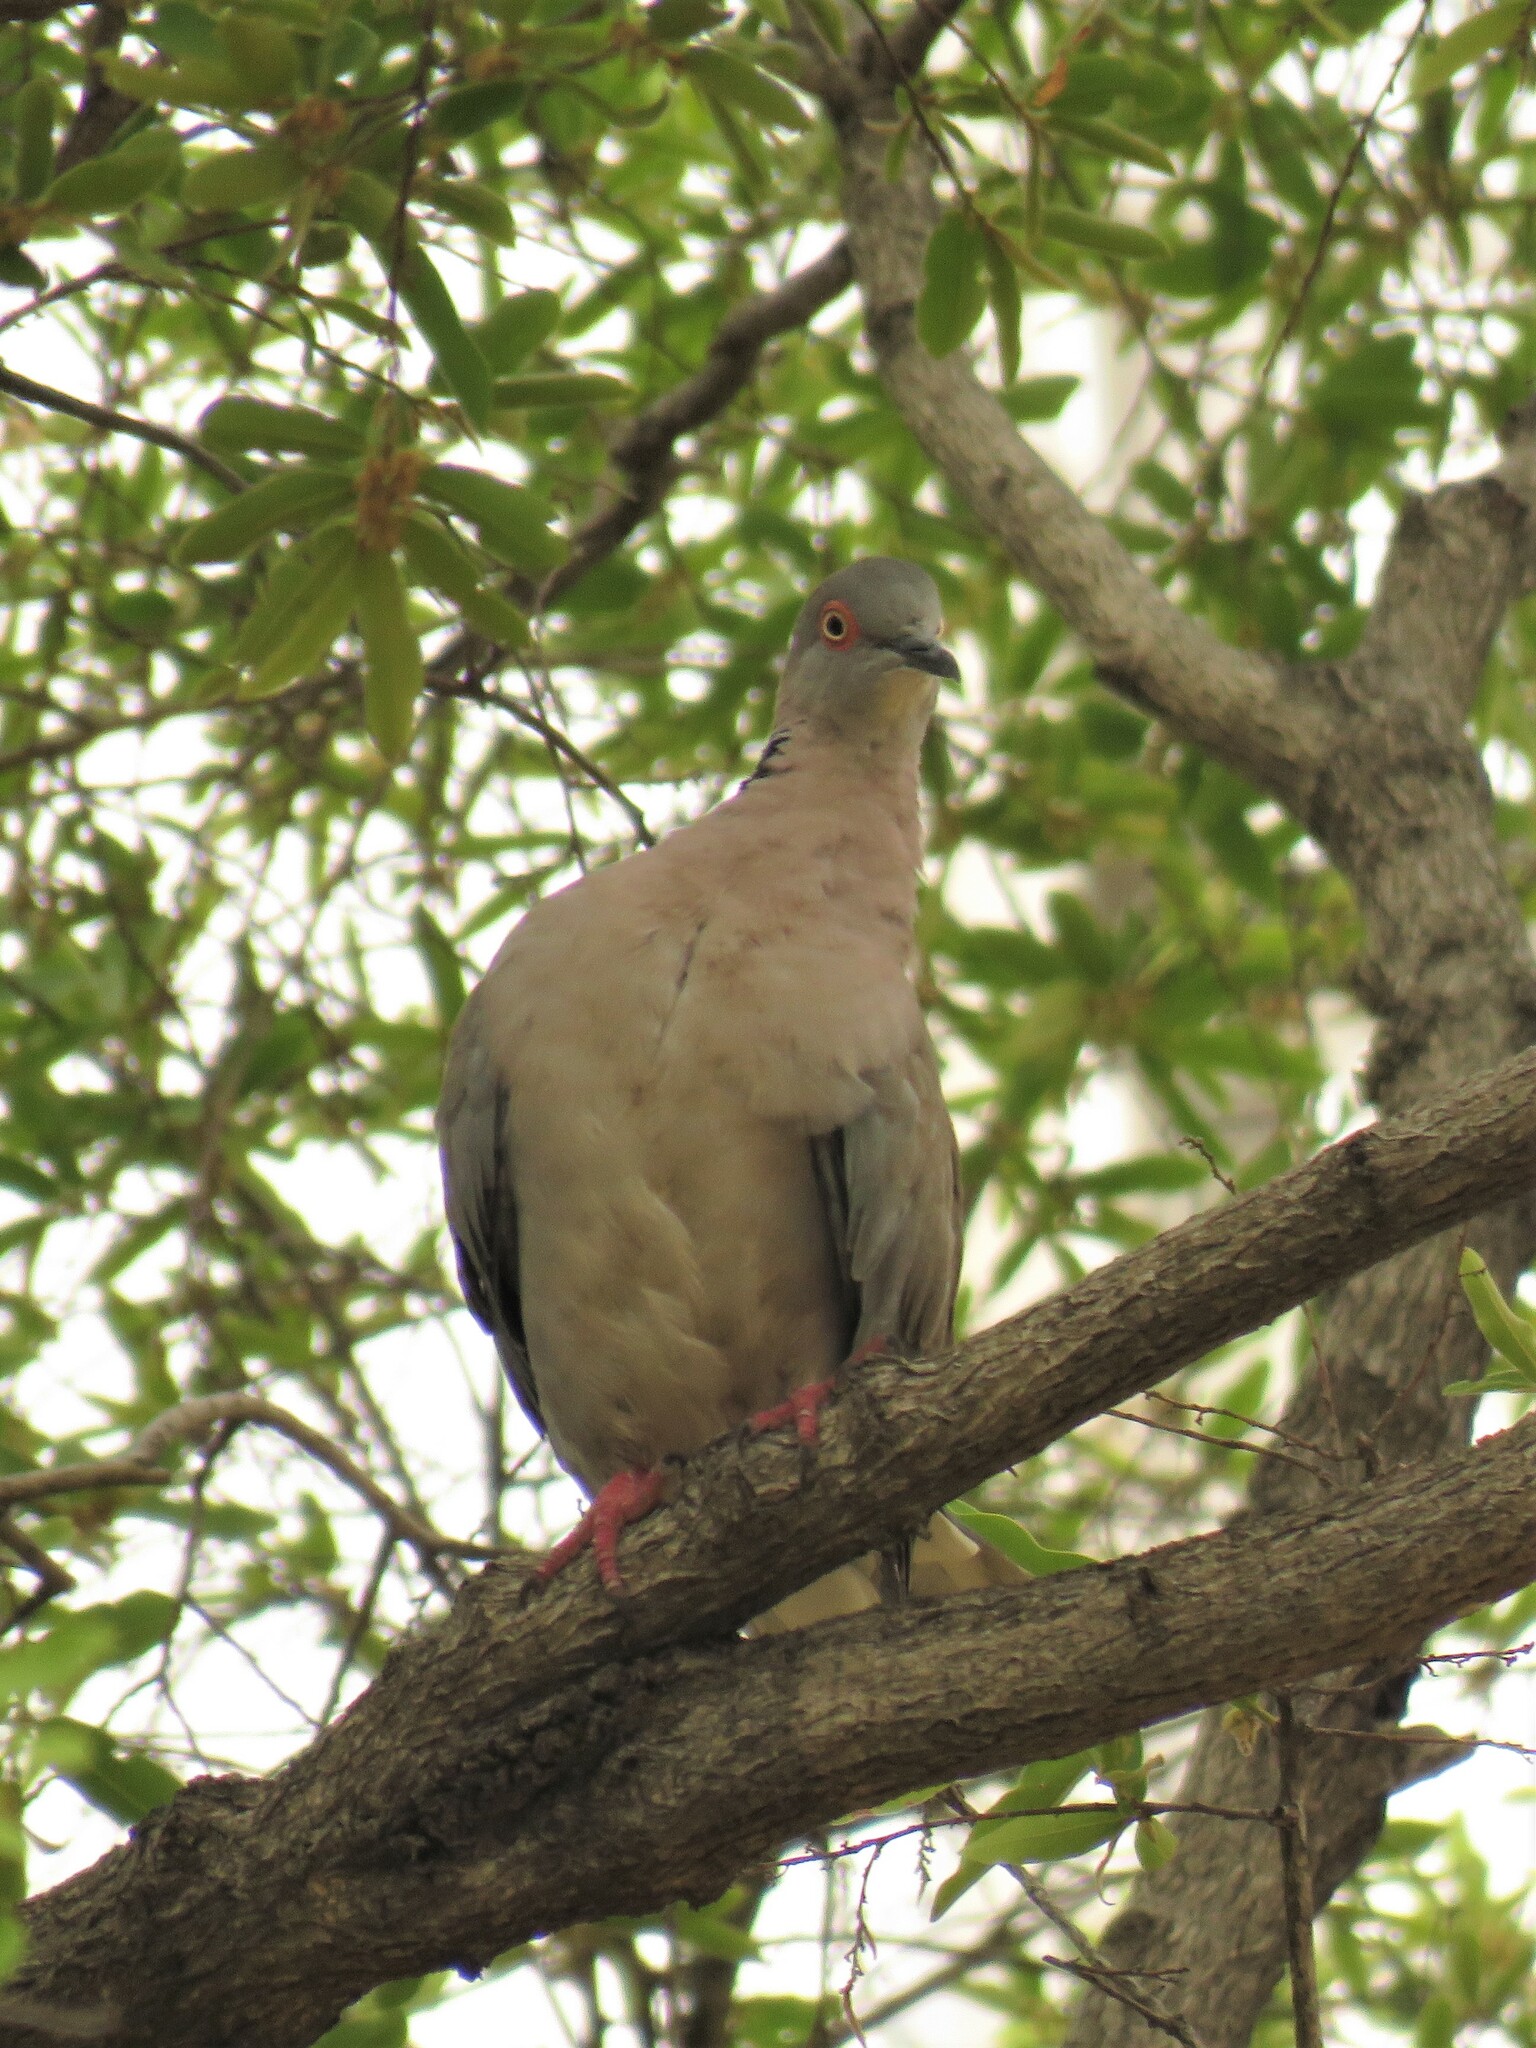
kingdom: Animalia
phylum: Chordata
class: Aves
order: Columbiformes
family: Columbidae
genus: Streptopelia
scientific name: Streptopelia decipiens
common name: Mourning collared dove
